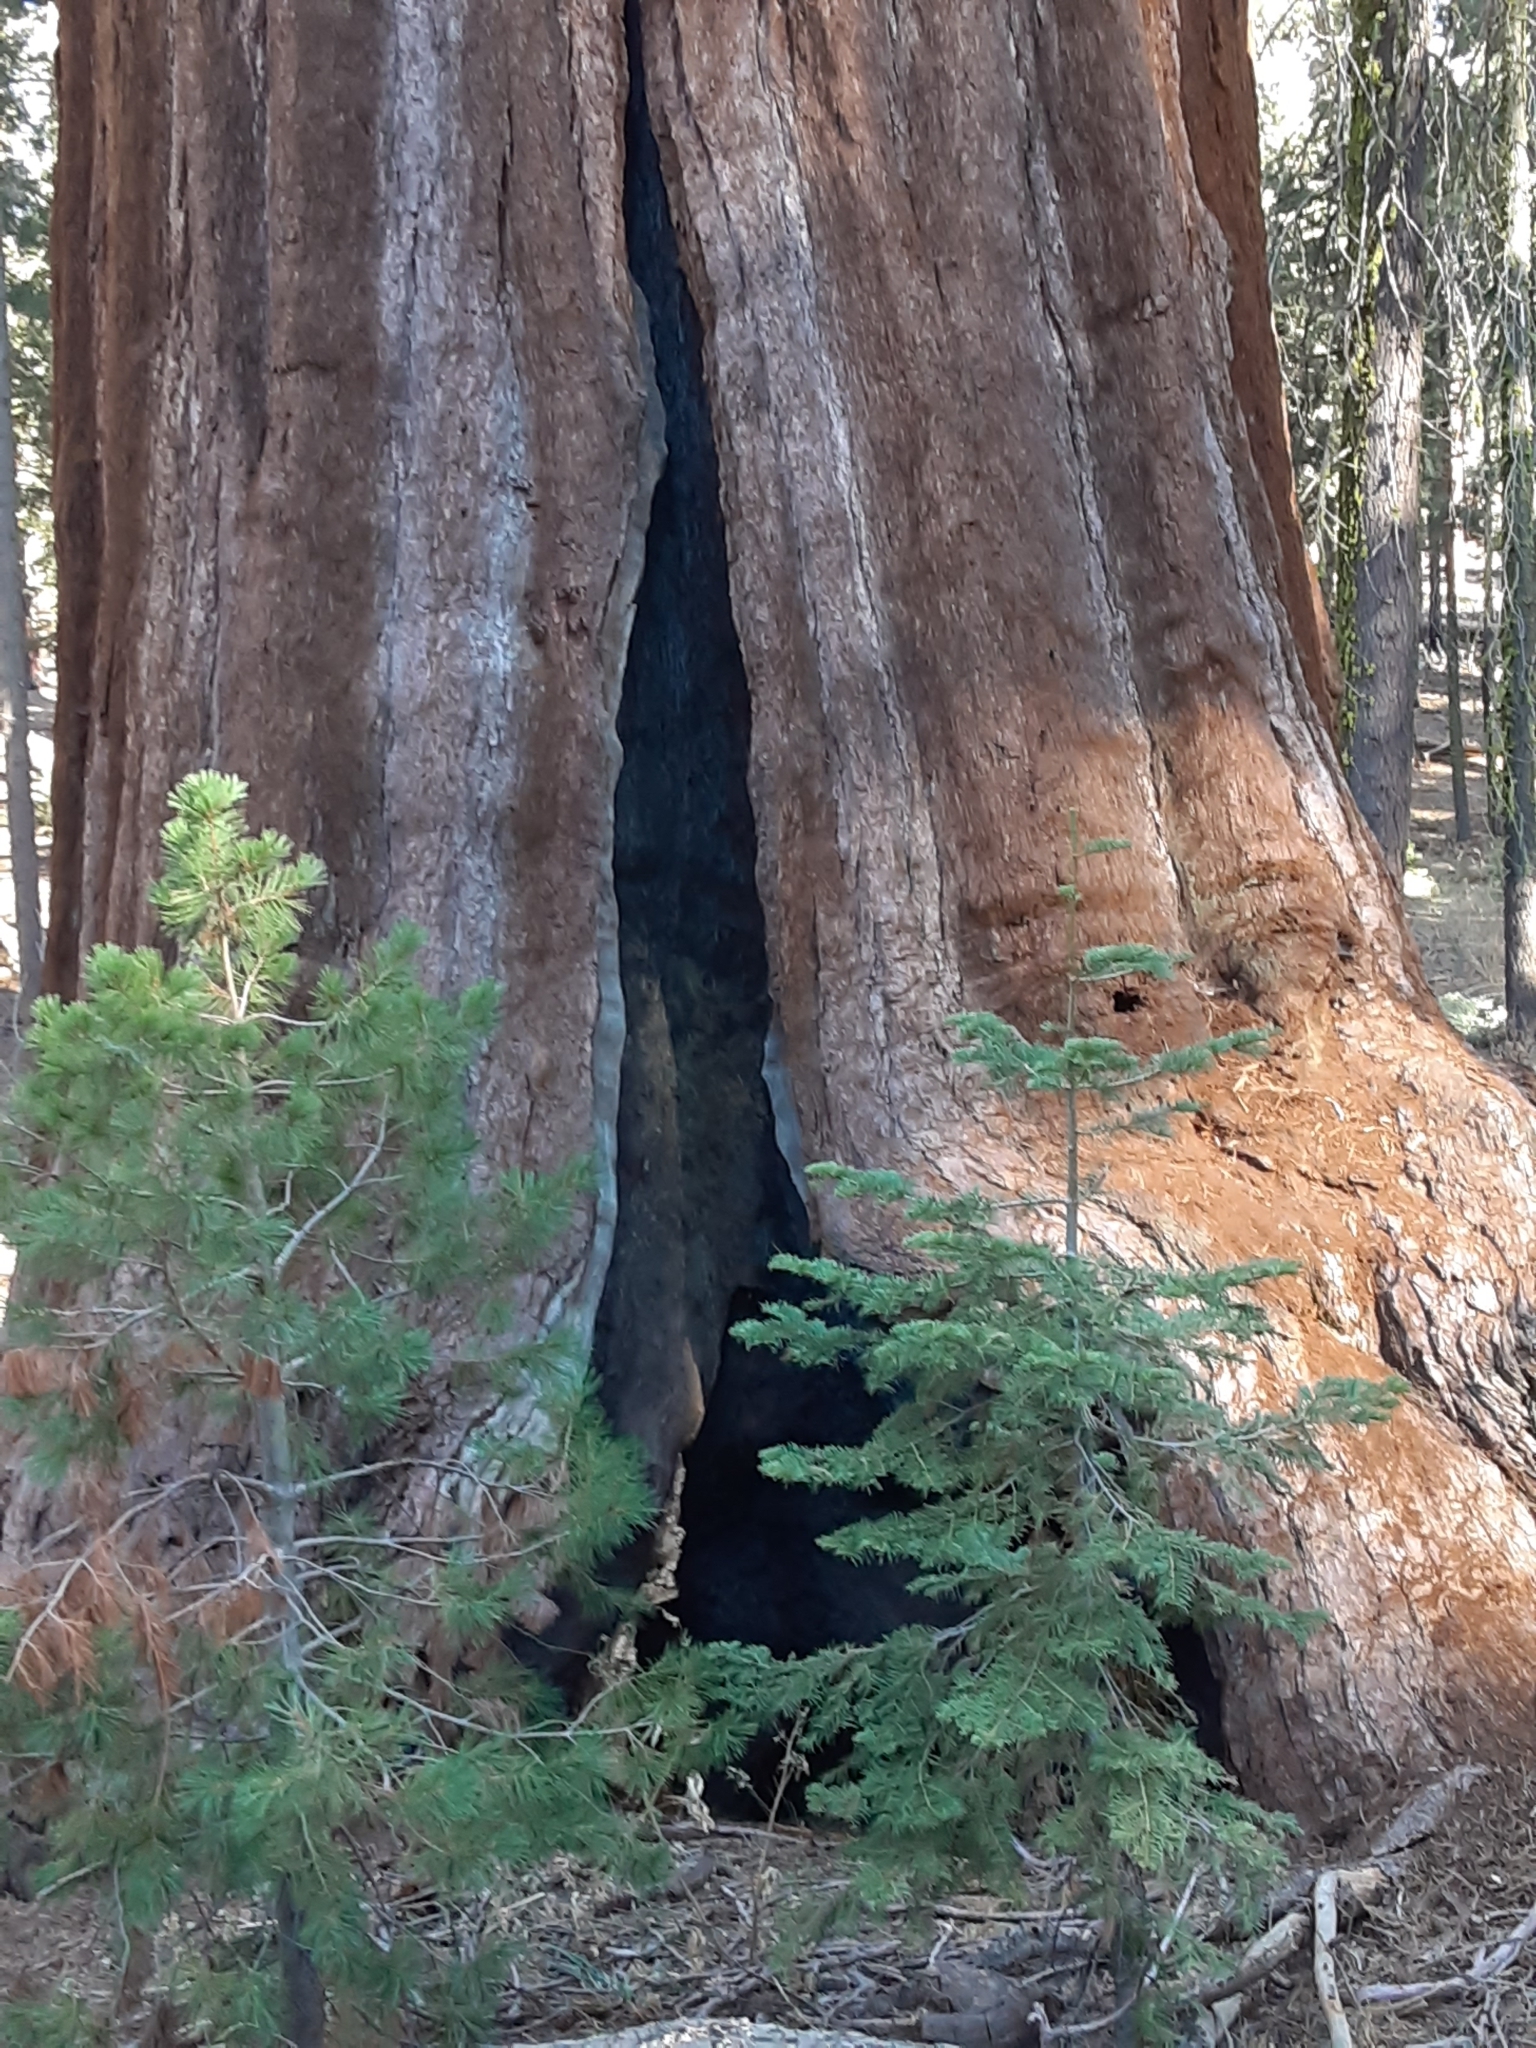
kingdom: Plantae
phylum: Tracheophyta
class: Pinopsida
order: Pinales
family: Cupressaceae
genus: Sequoiadendron
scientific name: Sequoiadendron giganteum
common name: Wellingtonia
